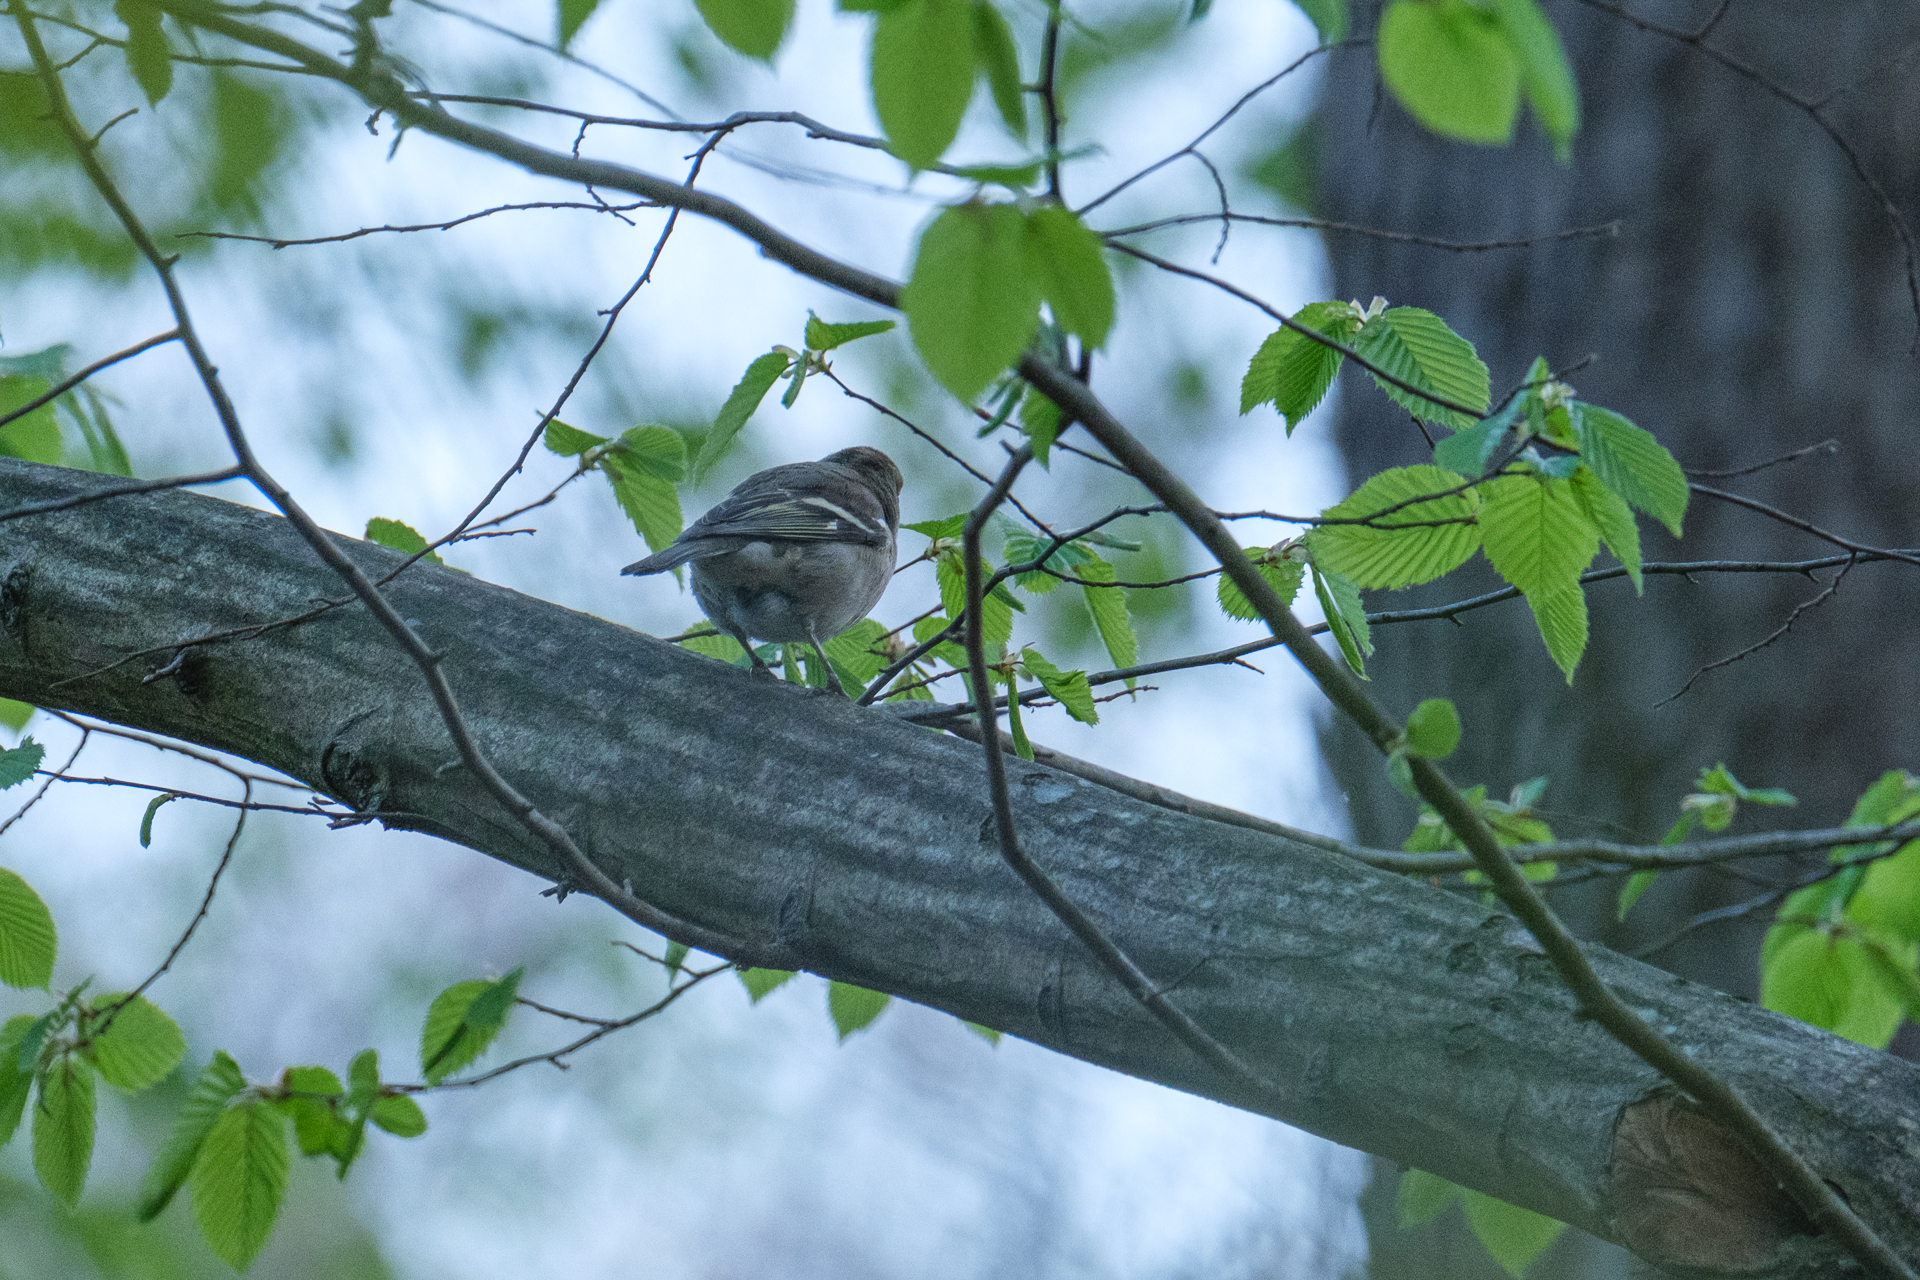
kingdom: Animalia
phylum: Chordata
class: Aves
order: Passeriformes
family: Fringillidae
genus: Fringilla
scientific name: Fringilla coelebs
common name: Common chaffinch
